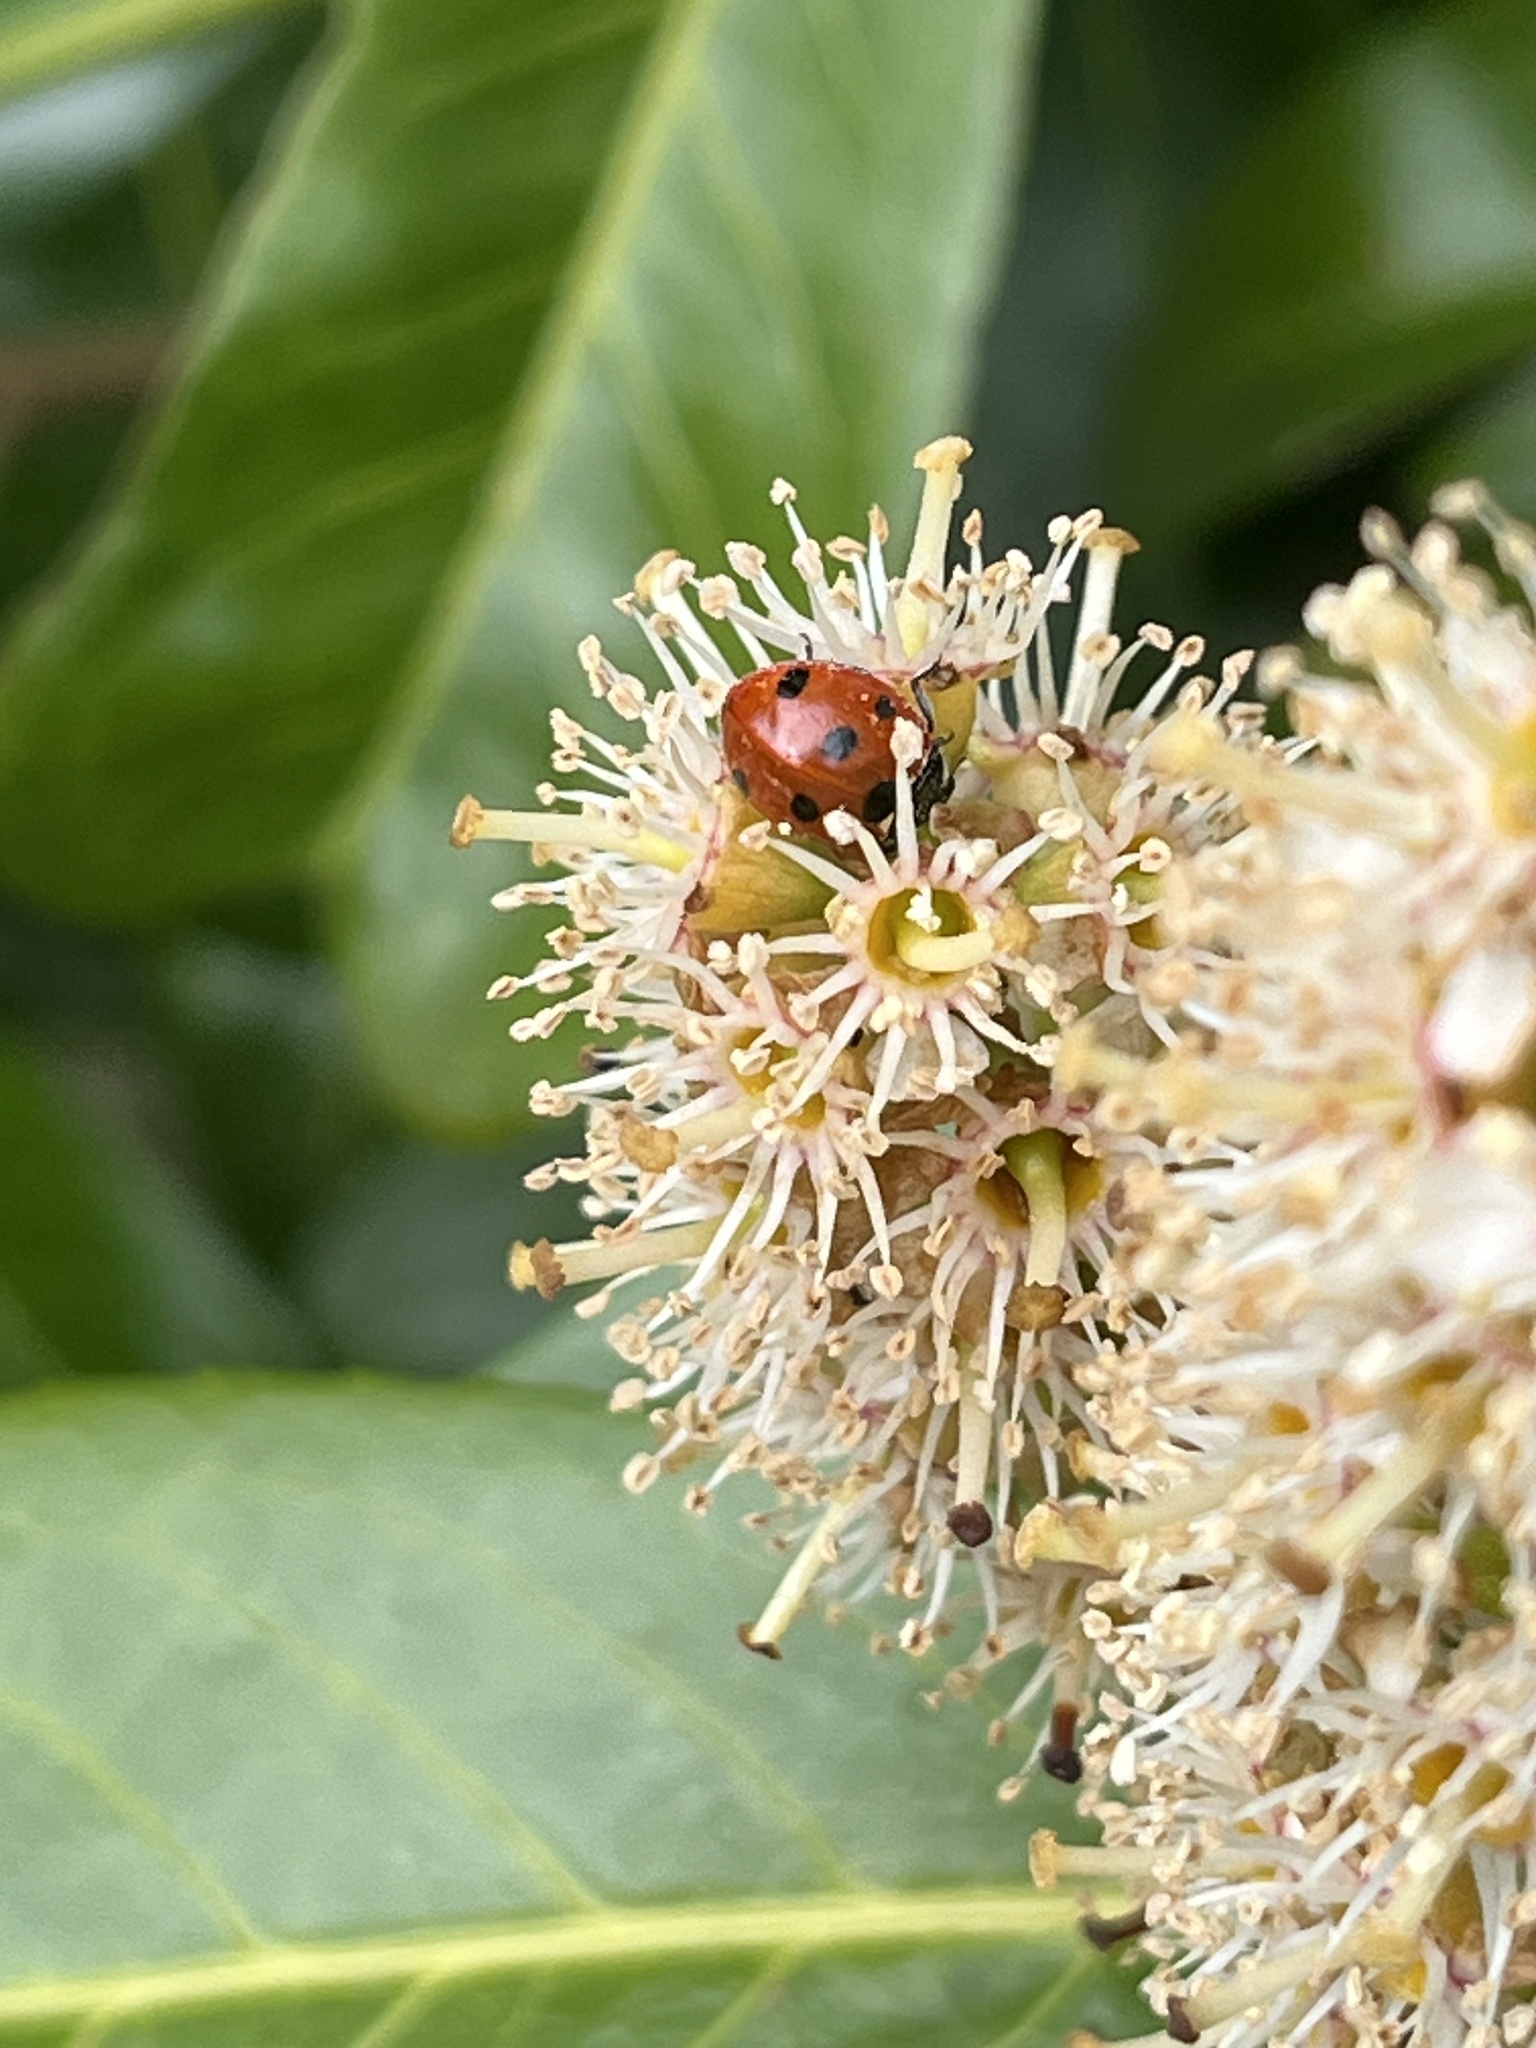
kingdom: Animalia
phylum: Arthropoda
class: Insecta
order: Coleoptera
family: Coccinellidae
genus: Coccinella
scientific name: Coccinella septempunctata
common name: Sevenspotted lady beetle
